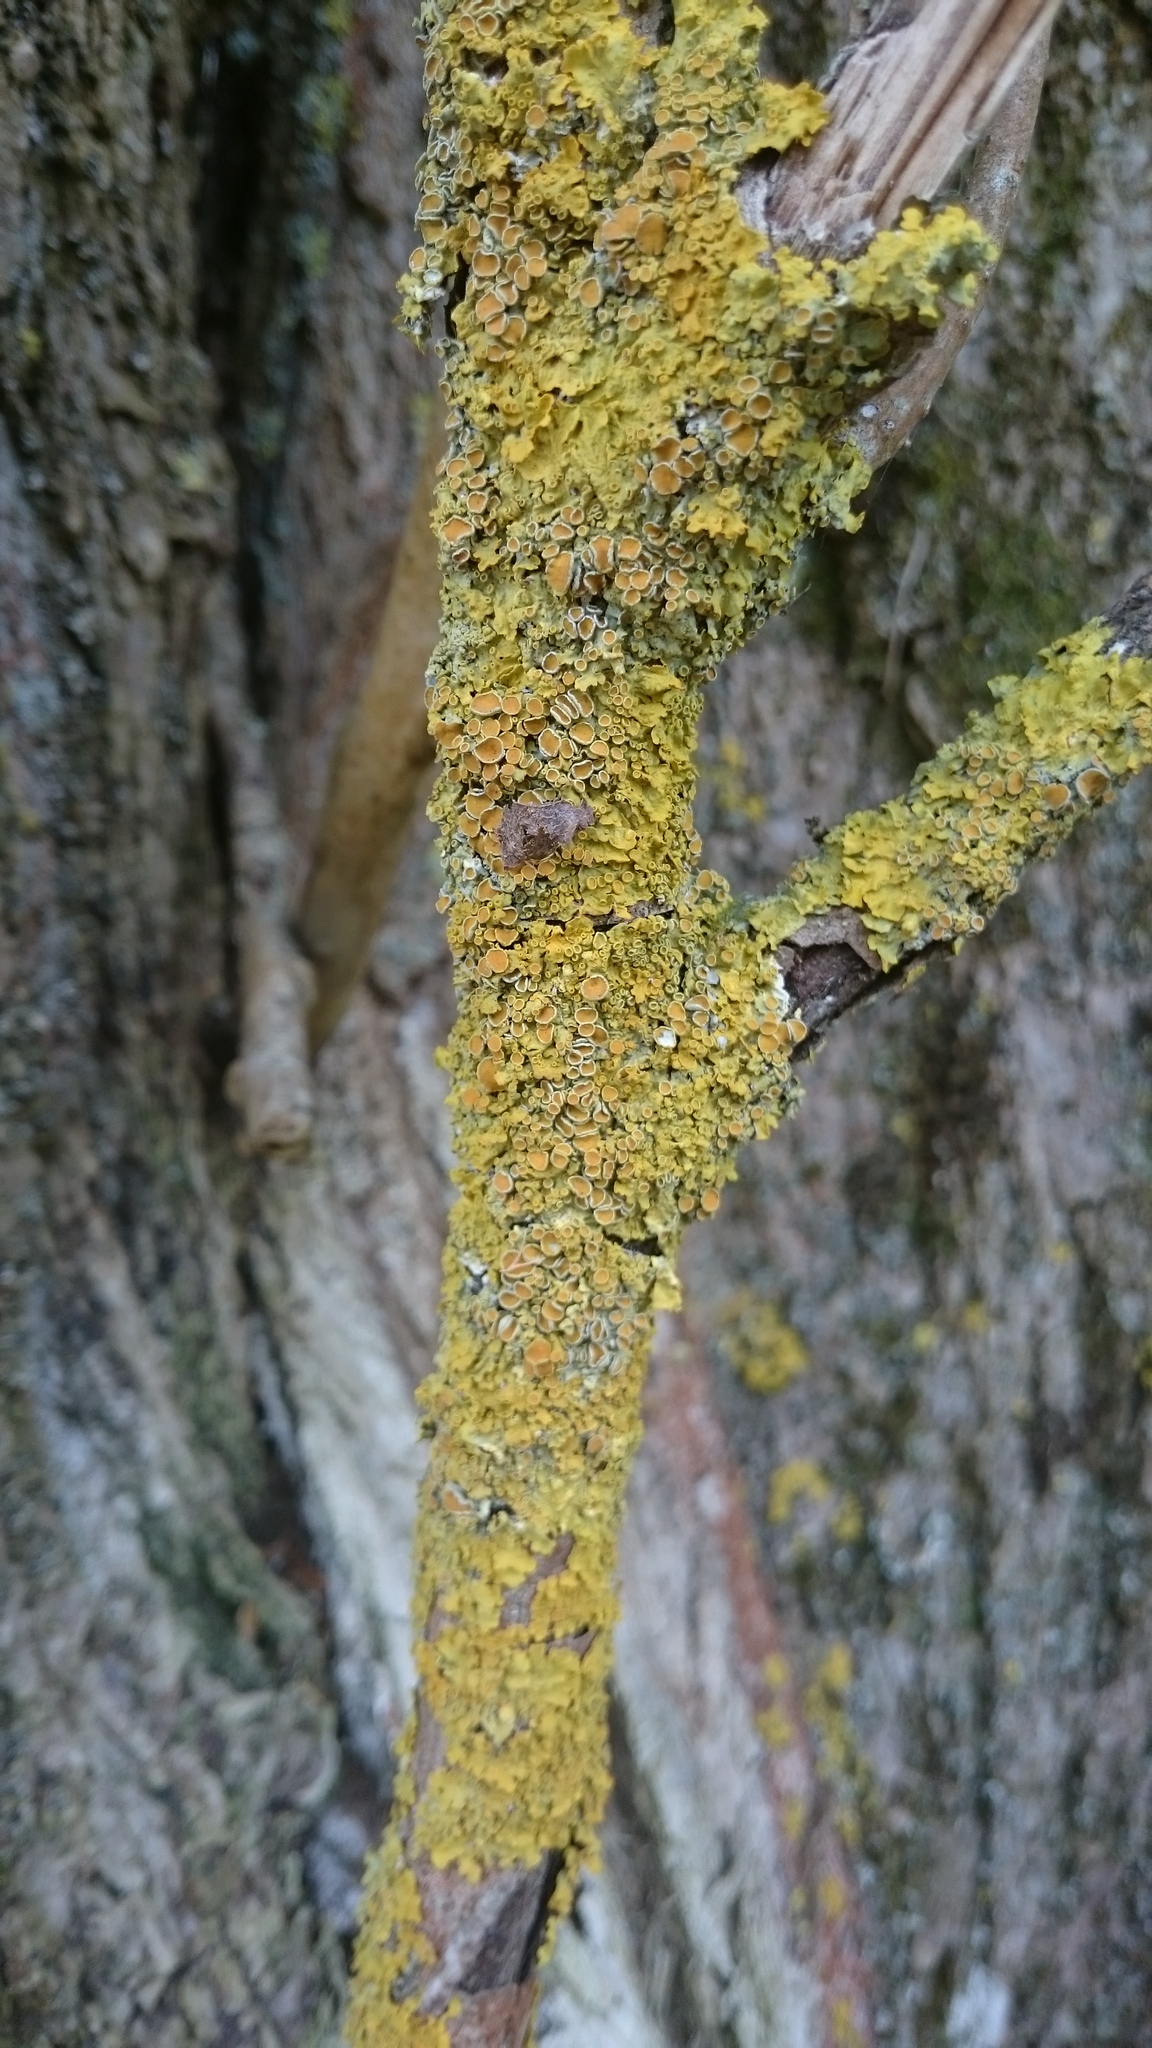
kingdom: Fungi
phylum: Ascomycota
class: Lecanoromycetes
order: Teloschistales
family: Teloschistaceae
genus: Xanthoria
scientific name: Xanthoria parietina
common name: Common orange lichen
